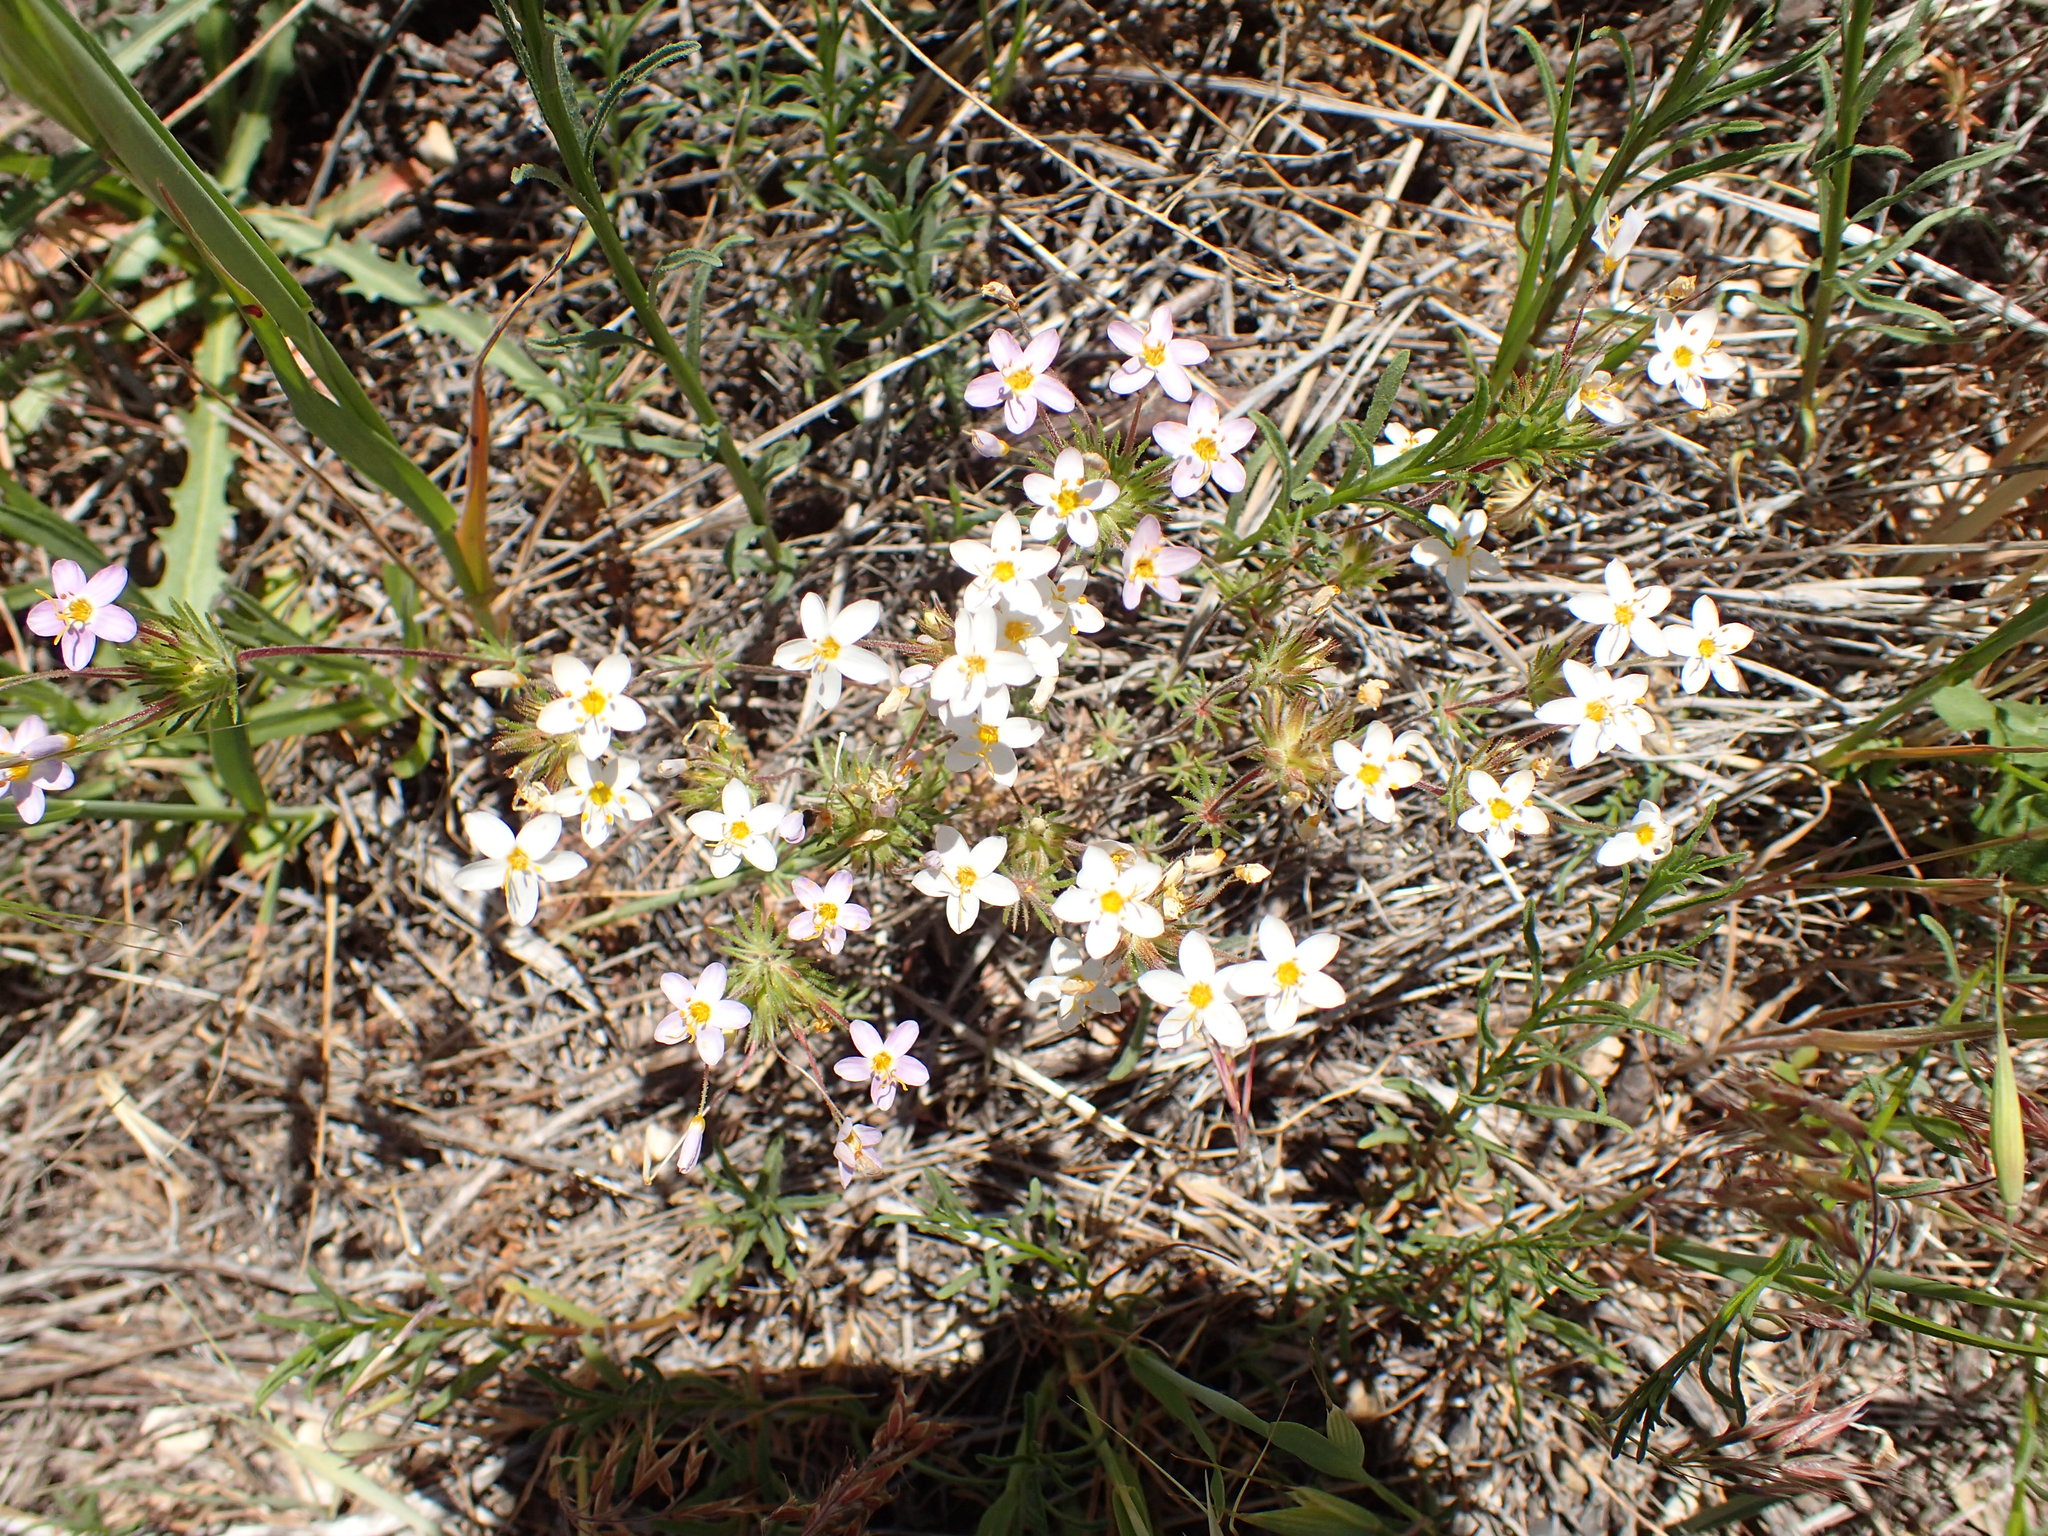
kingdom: Plantae
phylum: Tracheophyta
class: Magnoliopsida
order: Ericales
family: Polemoniaceae
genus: Leptosiphon
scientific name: Leptosiphon parviflorus
